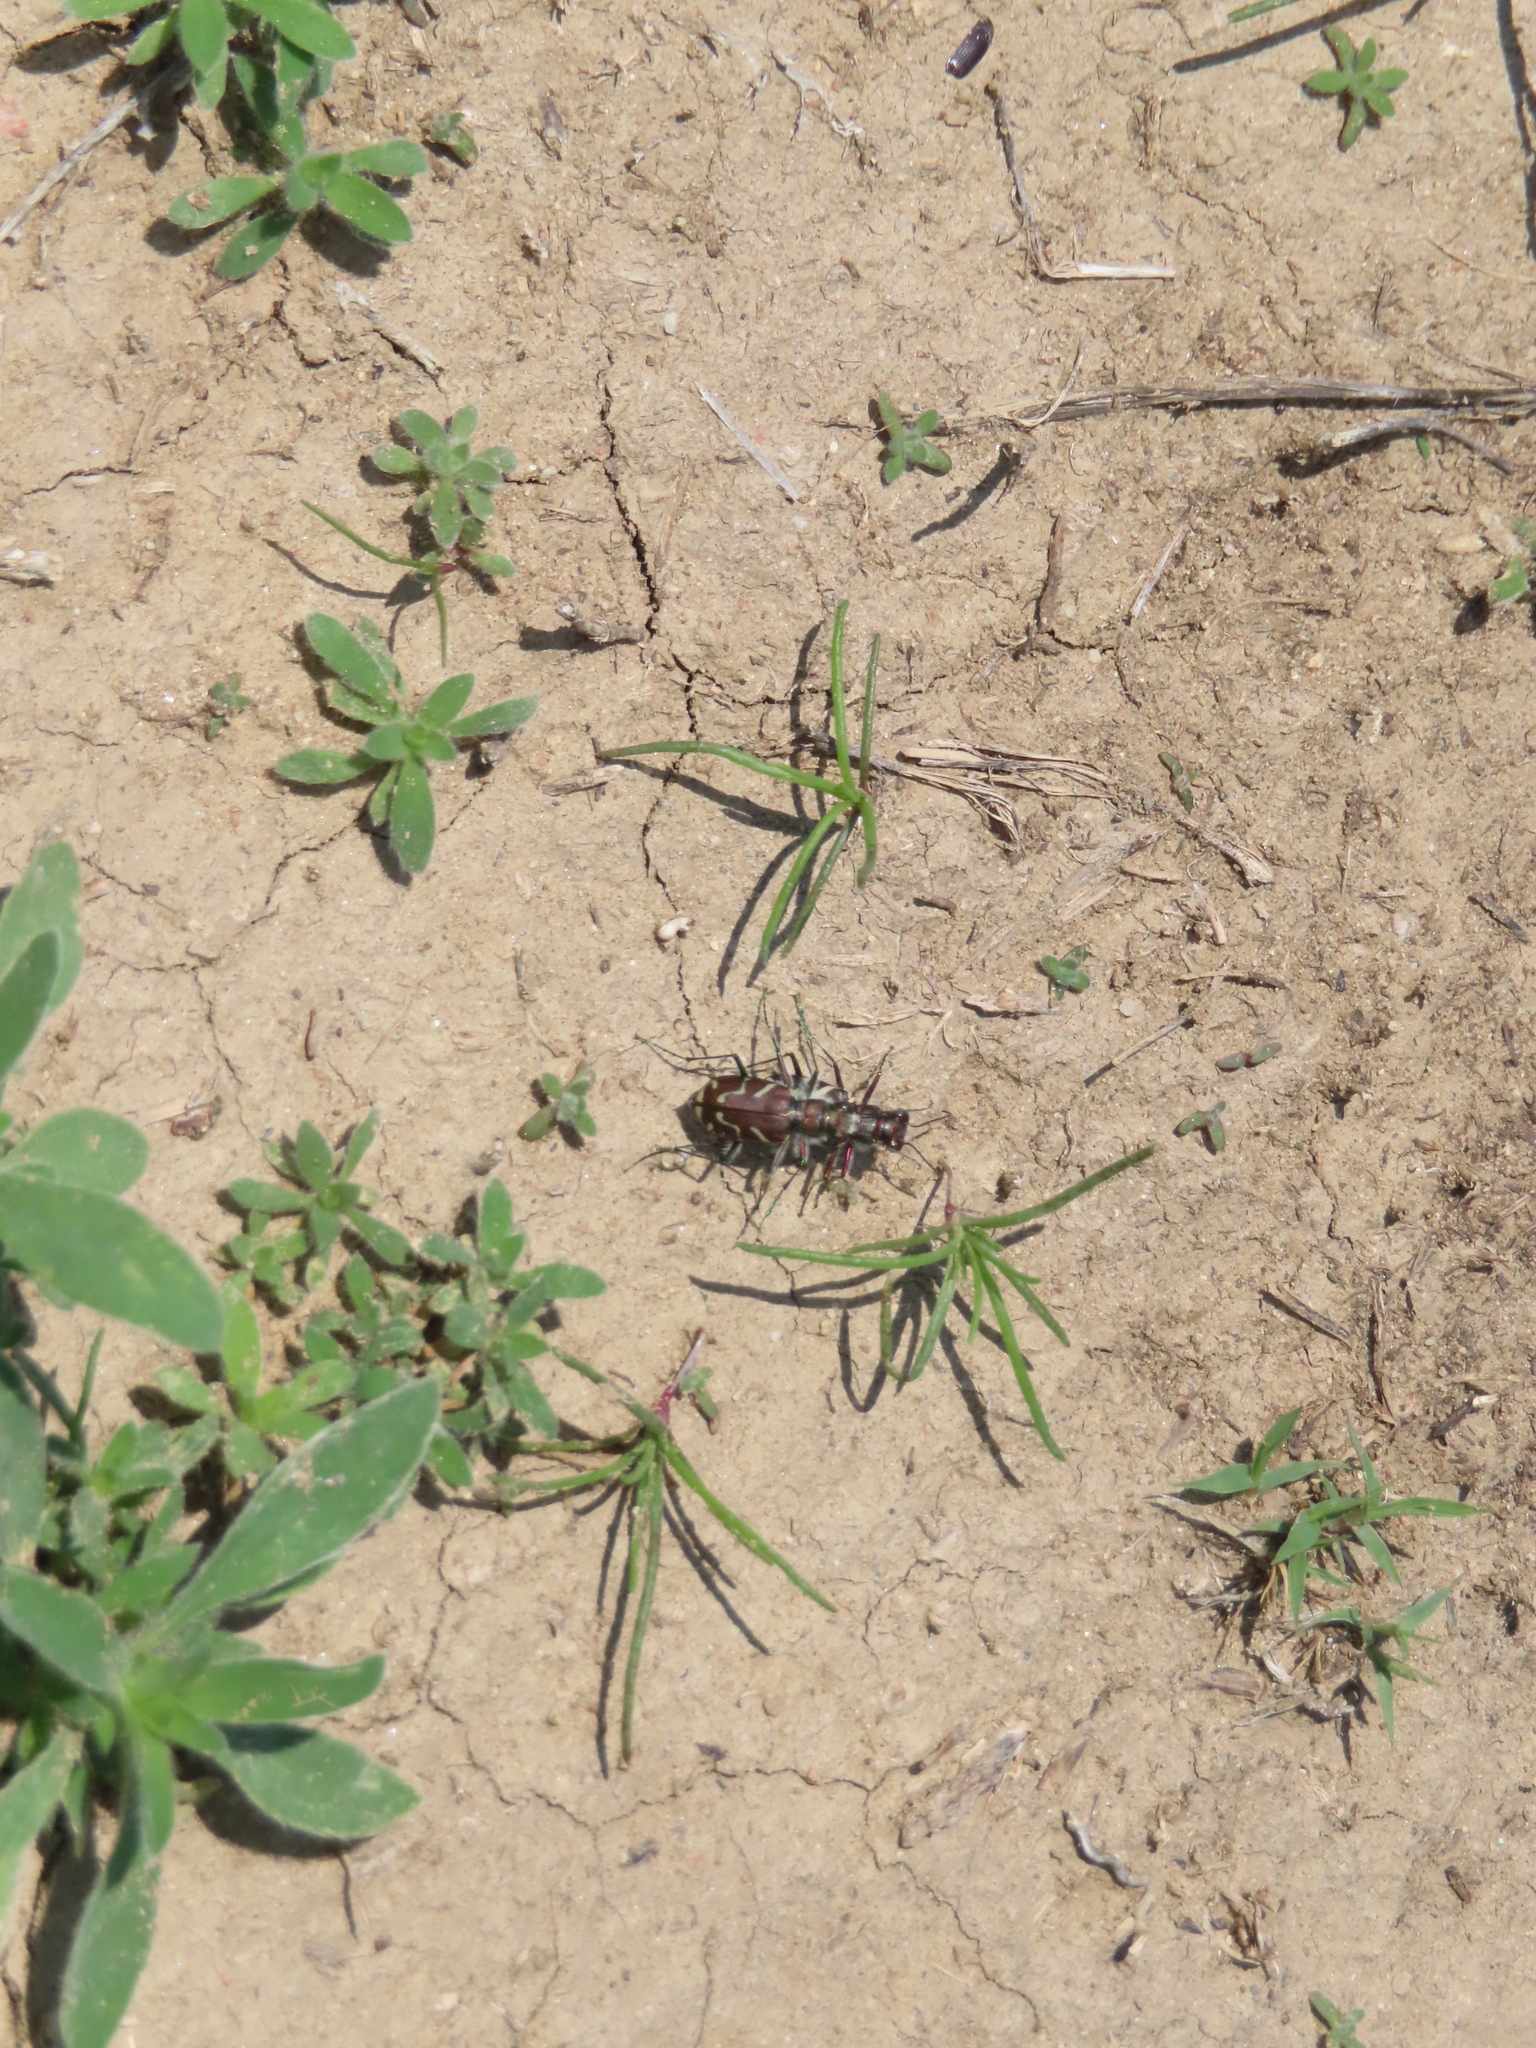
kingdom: Animalia
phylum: Arthropoda
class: Insecta
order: Coleoptera
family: Carabidae
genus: Cicindela
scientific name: Cicindela tranquebarica
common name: Oblique-lined tiger beetle
